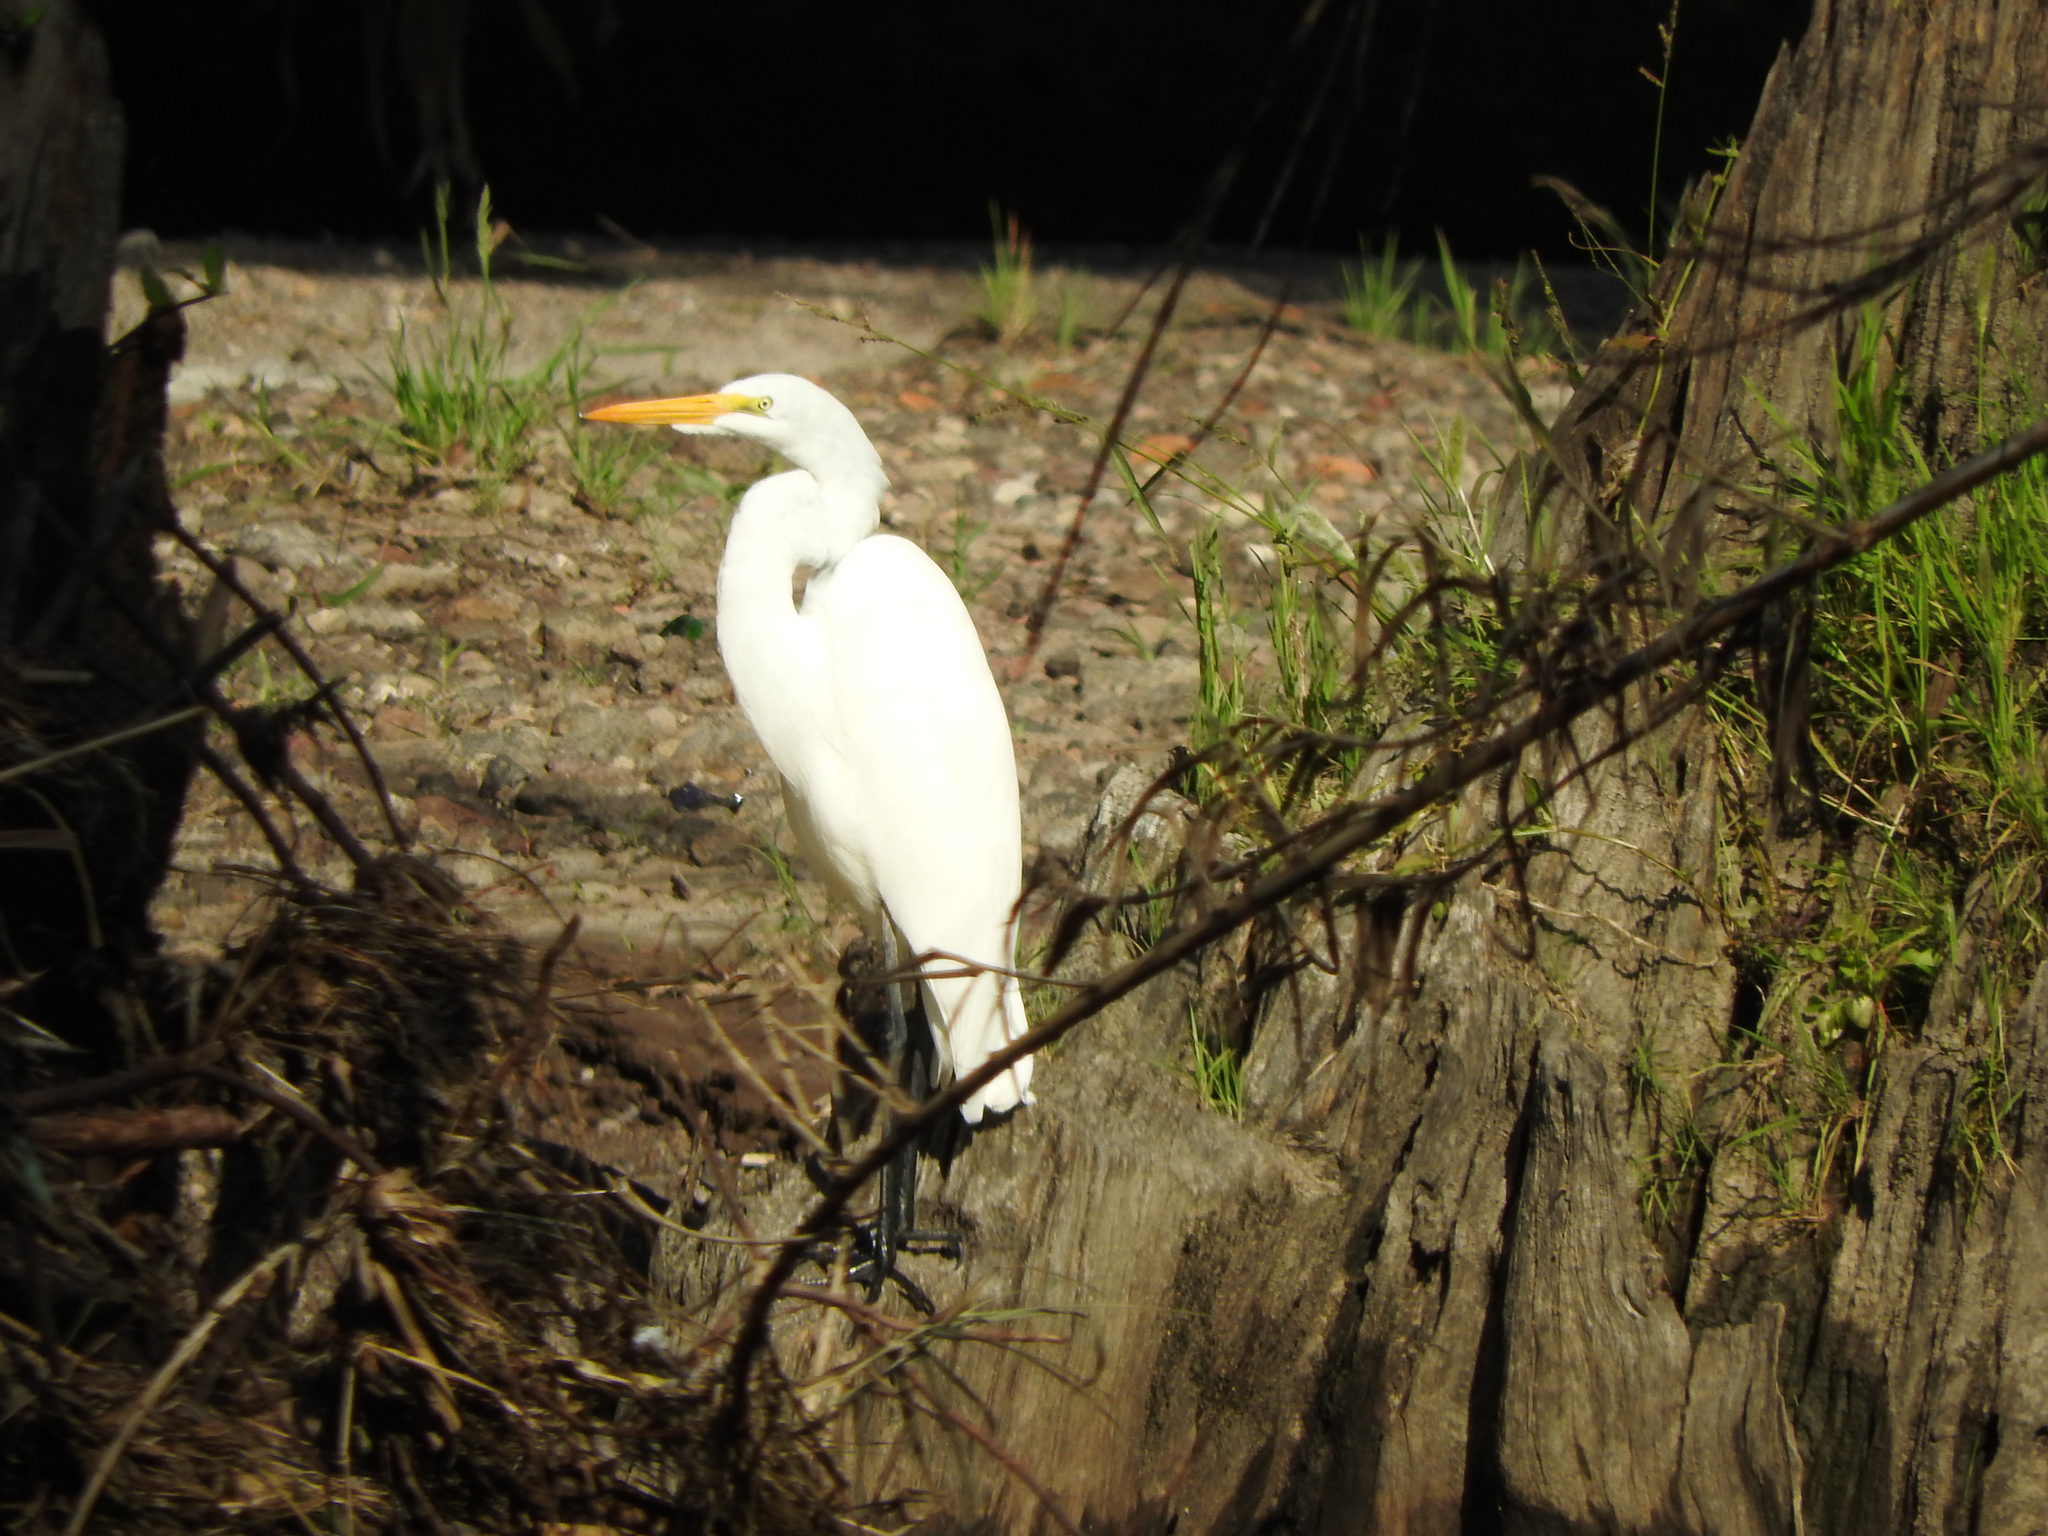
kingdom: Animalia
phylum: Chordata
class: Aves
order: Pelecaniformes
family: Ardeidae
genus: Ardea
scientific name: Ardea alba
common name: Great egret
